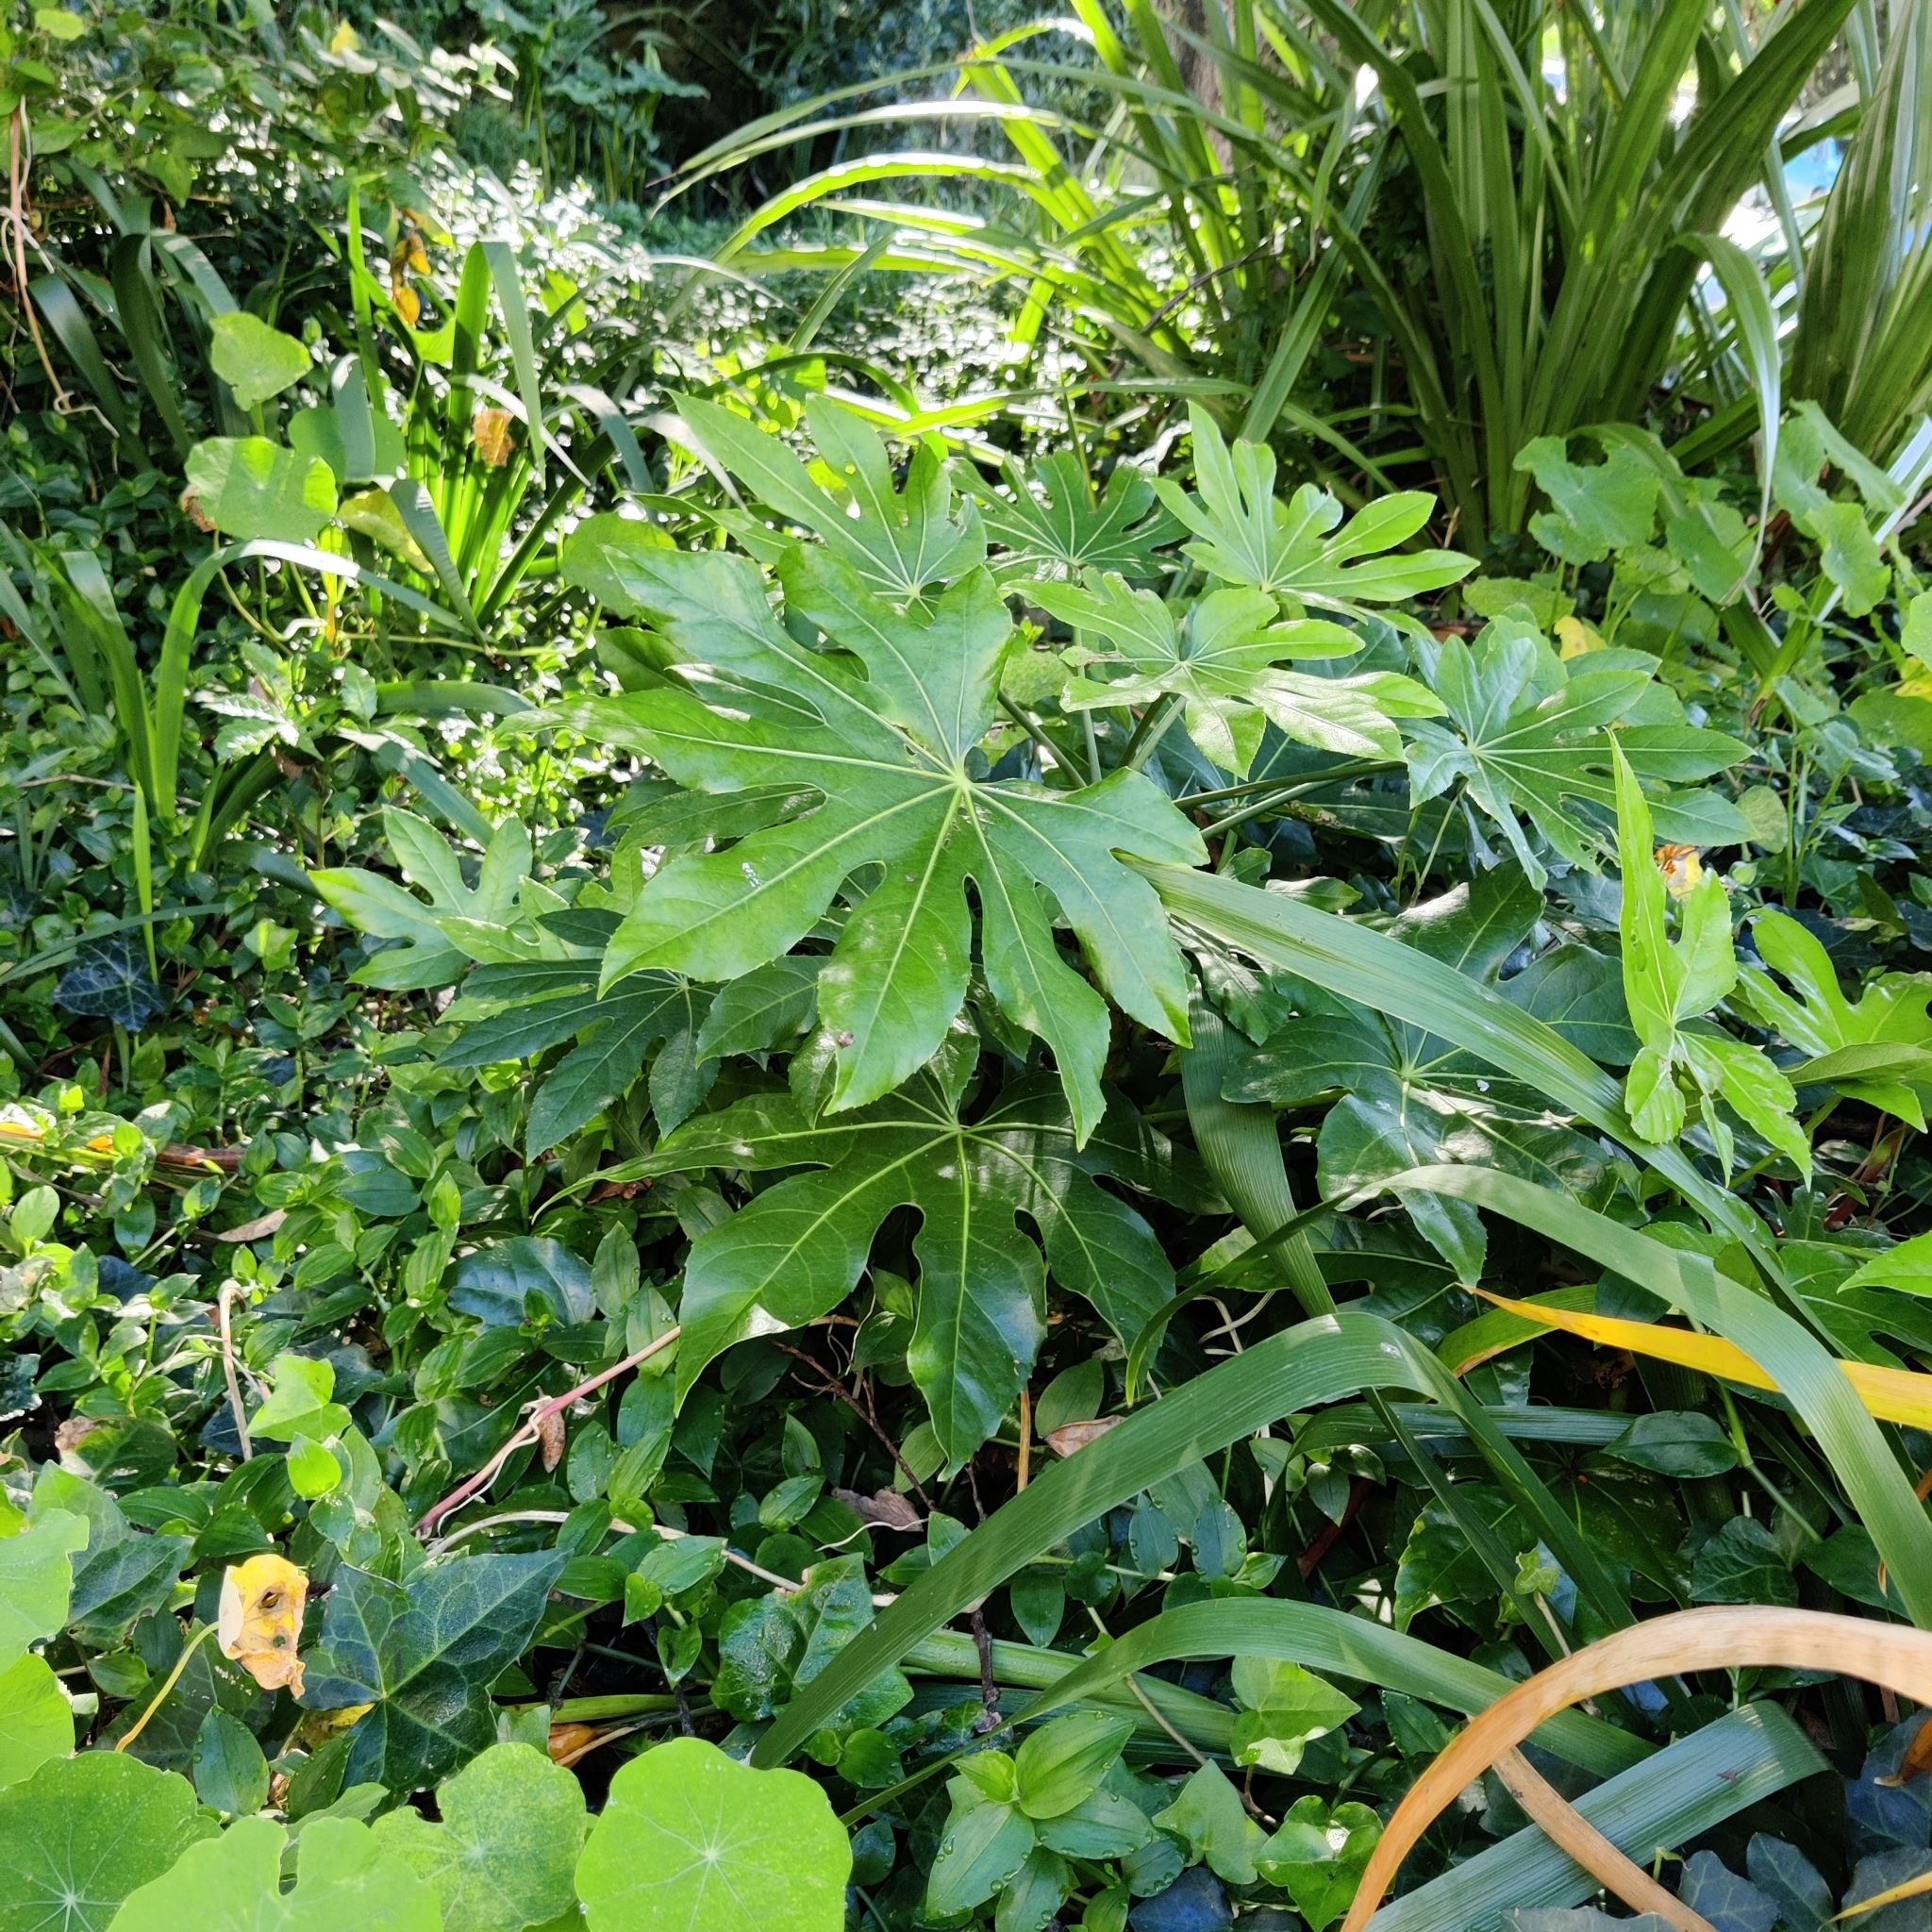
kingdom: Plantae
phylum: Tracheophyta
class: Magnoliopsida
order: Apiales
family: Araliaceae
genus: Fatsia
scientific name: Fatsia japonica
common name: Fatsia
